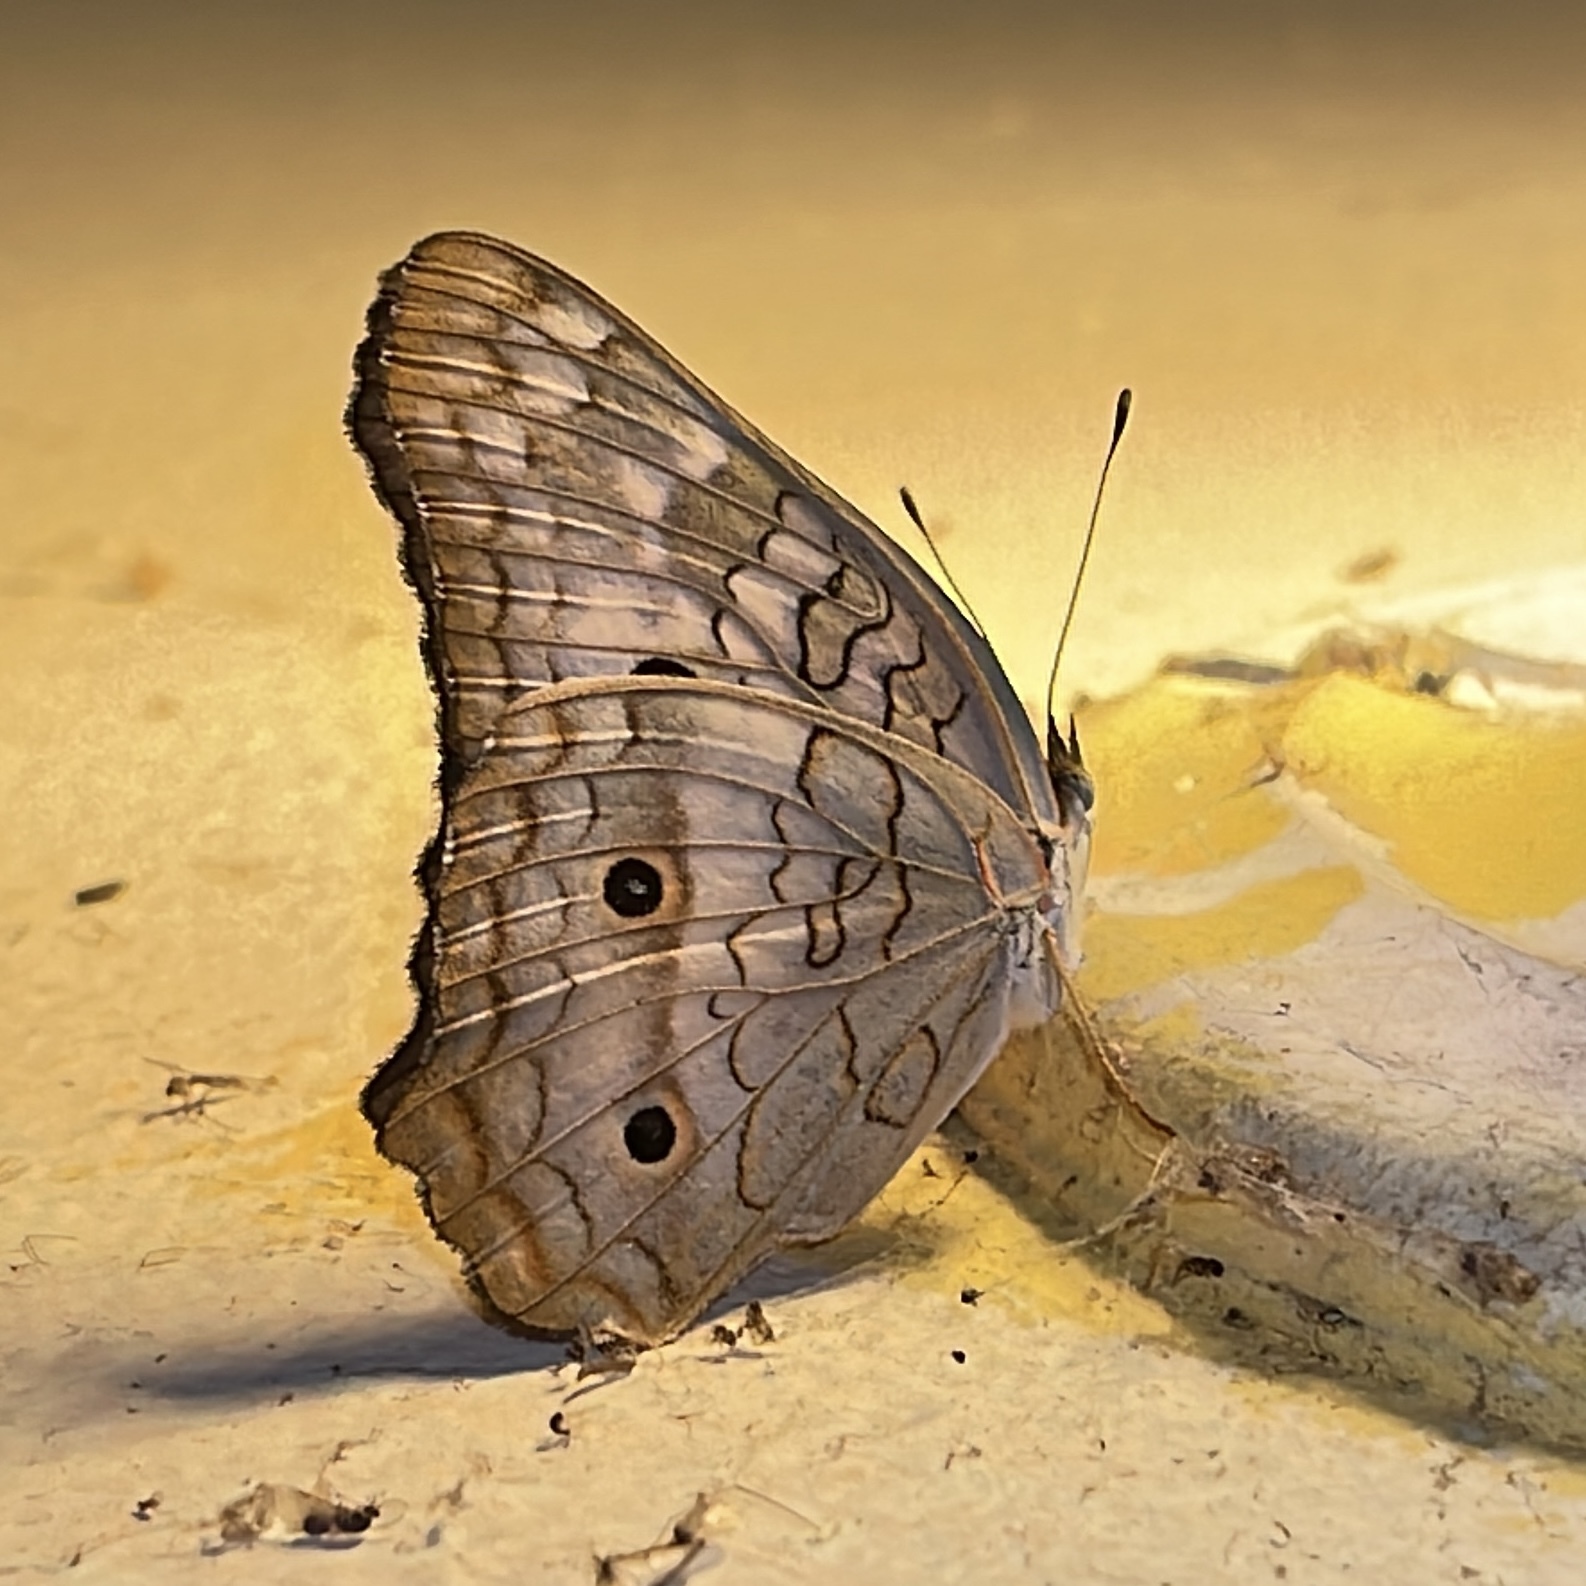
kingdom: Animalia
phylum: Arthropoda
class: Insecta
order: Lepidoptera
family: Nymphalidae
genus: Anartia
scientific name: Anartia jatrophae
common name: White peacock
